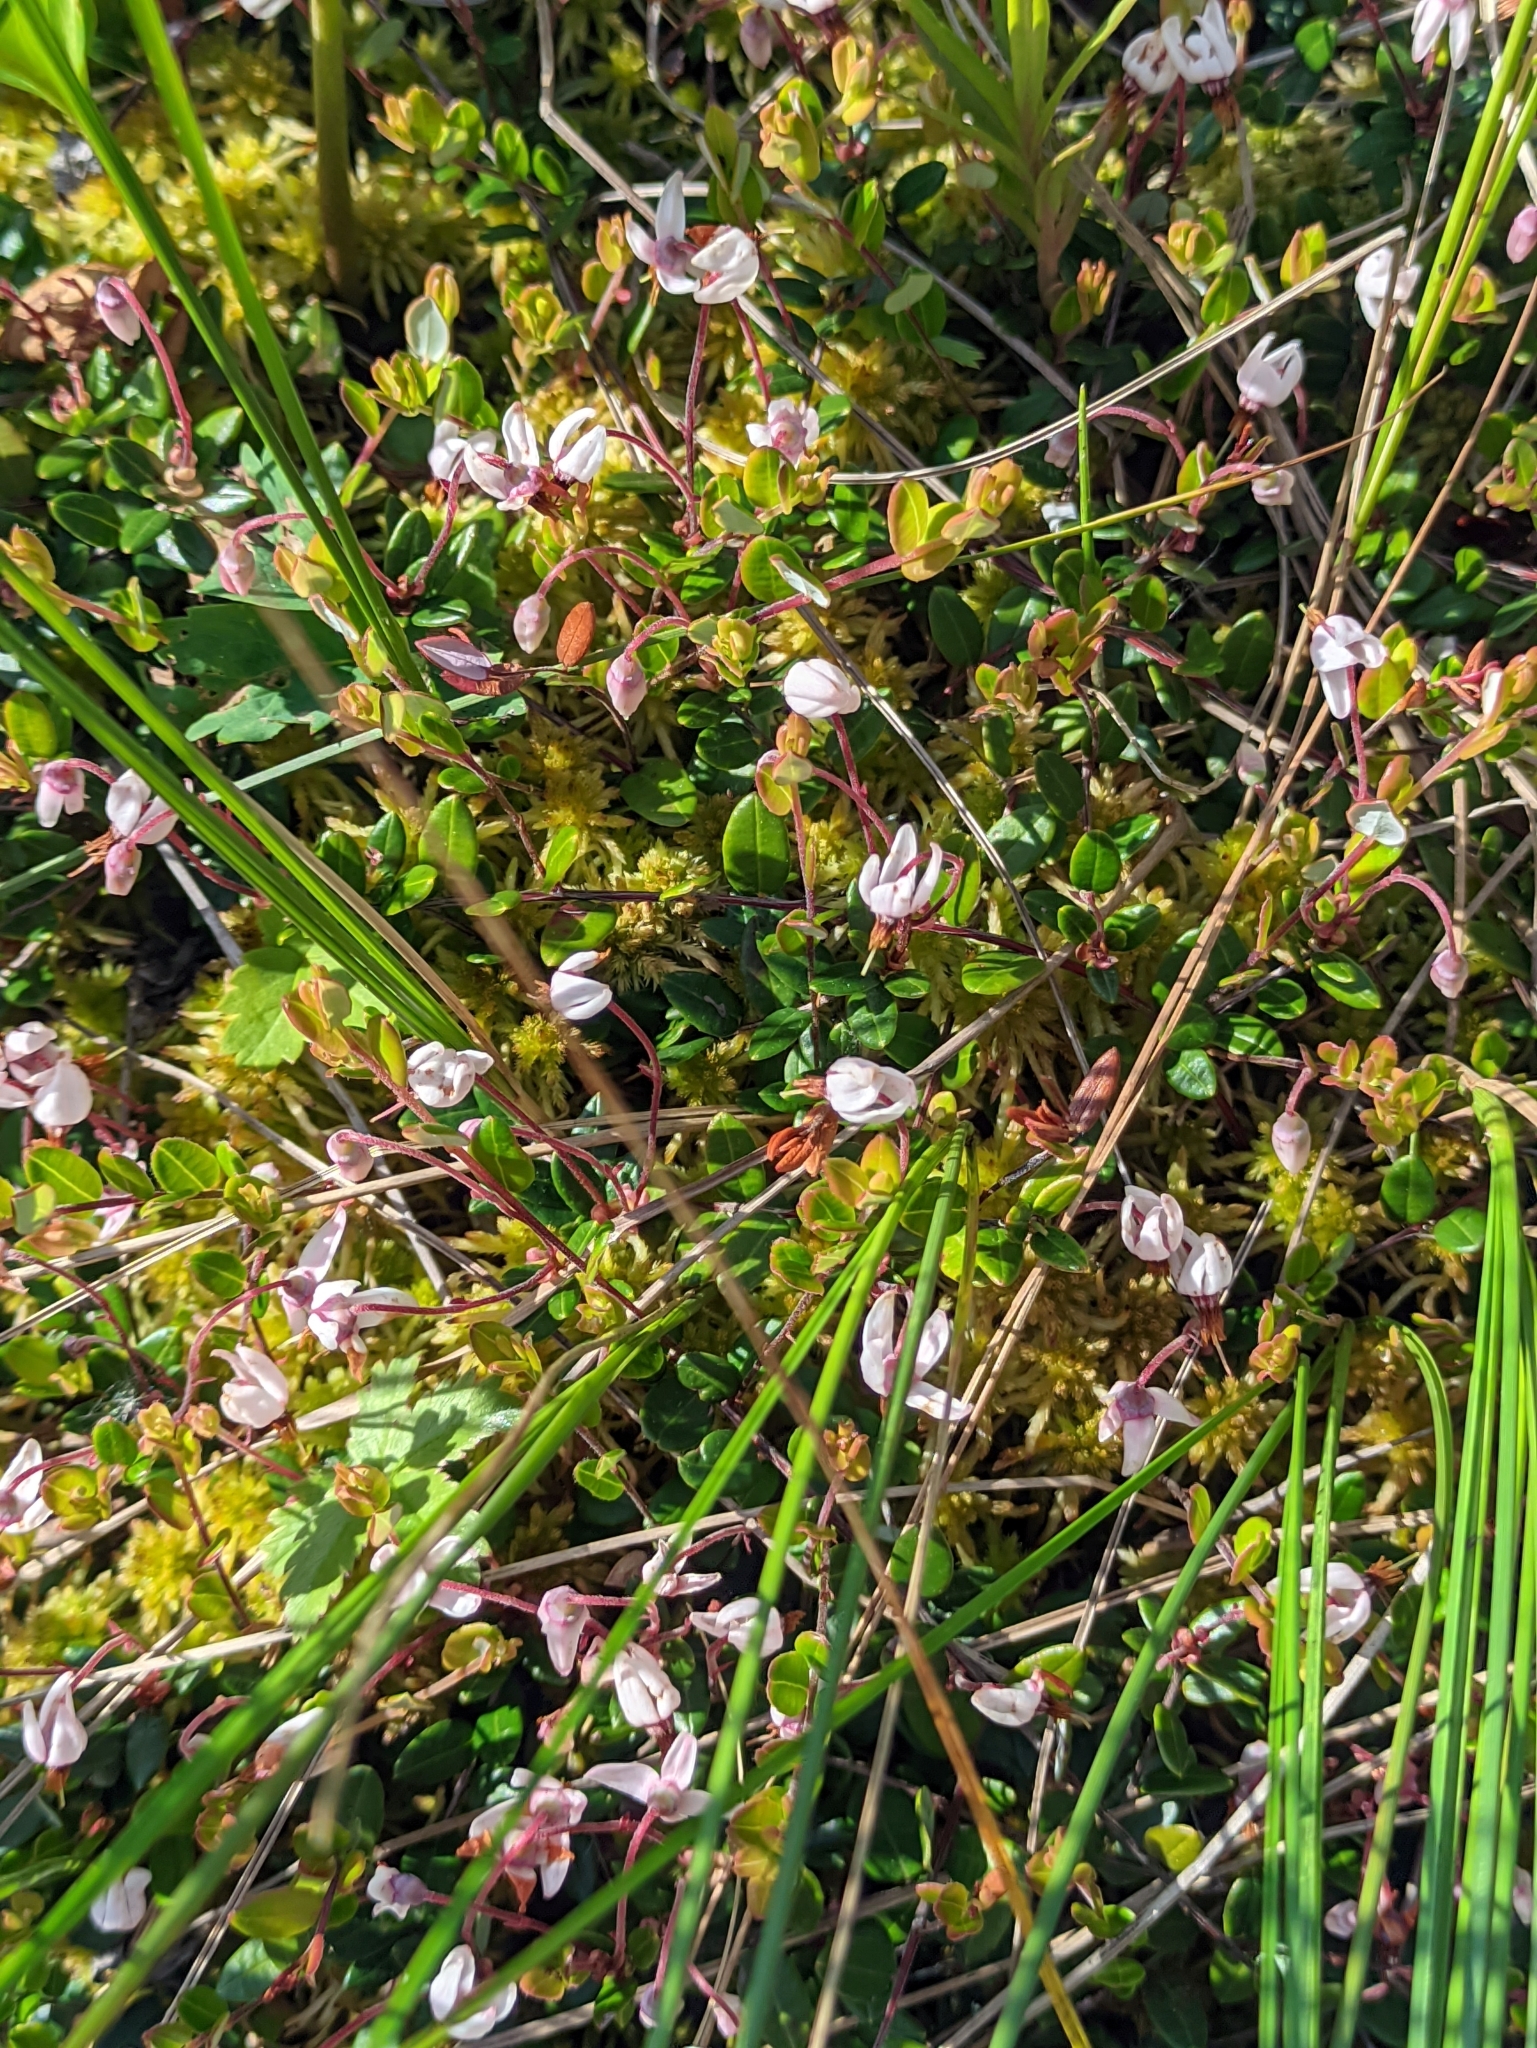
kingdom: Plantae
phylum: Tracheophyta
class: Magnoliopsida
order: Ericales
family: Ericaceae
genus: Vaccinium
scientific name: Vaccinium oxycoccos
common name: Cranberry
